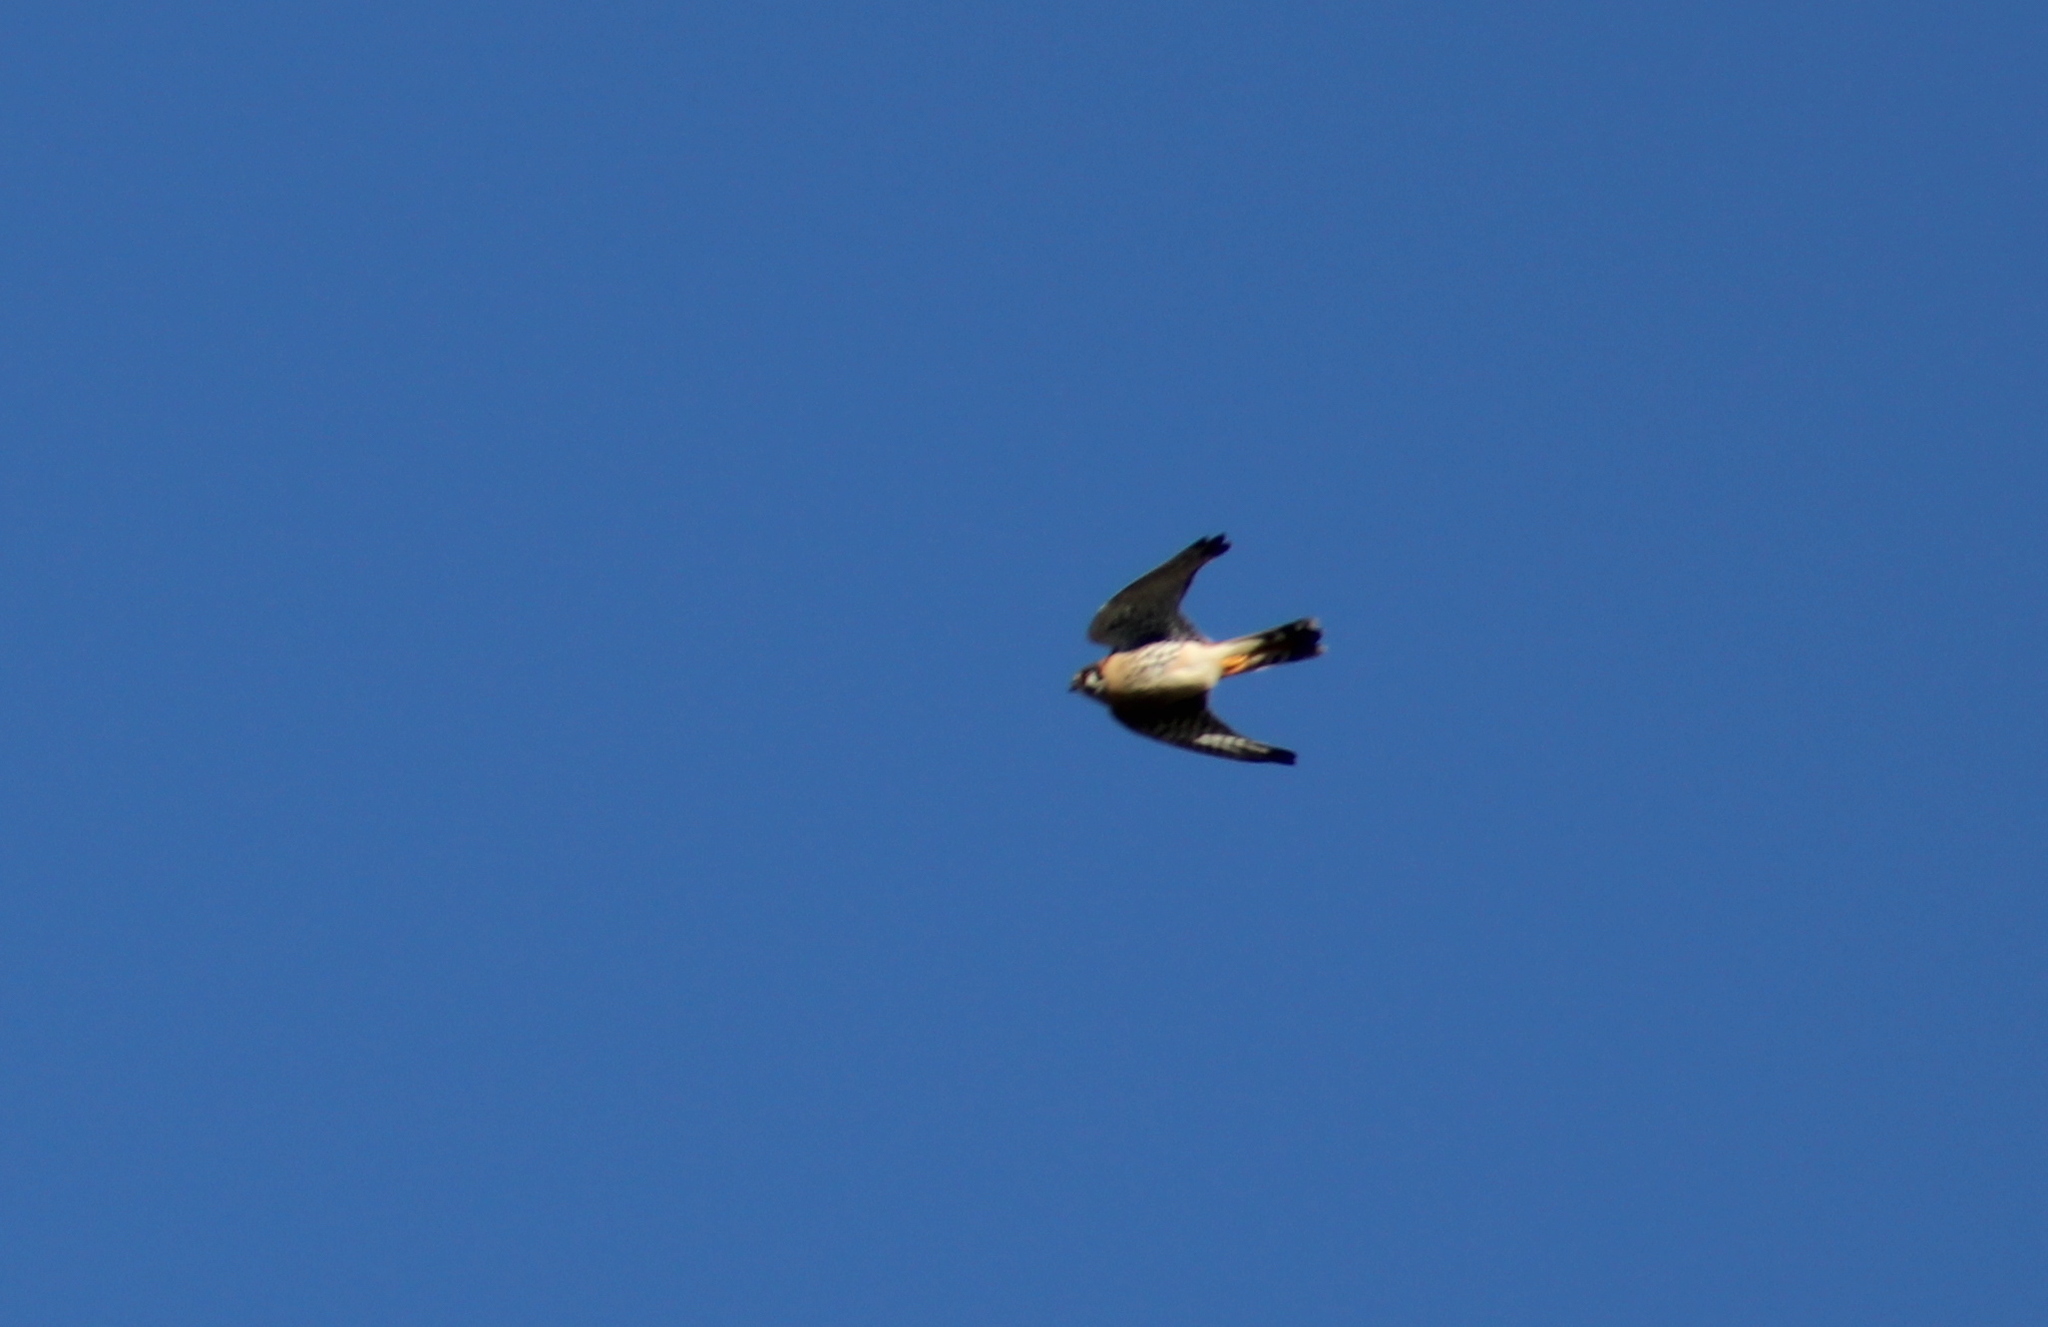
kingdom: Animalia
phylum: Chordata
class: Aves
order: Falconiformes
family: Falconidae
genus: Falco
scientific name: Falco sparverius
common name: American kestrel
